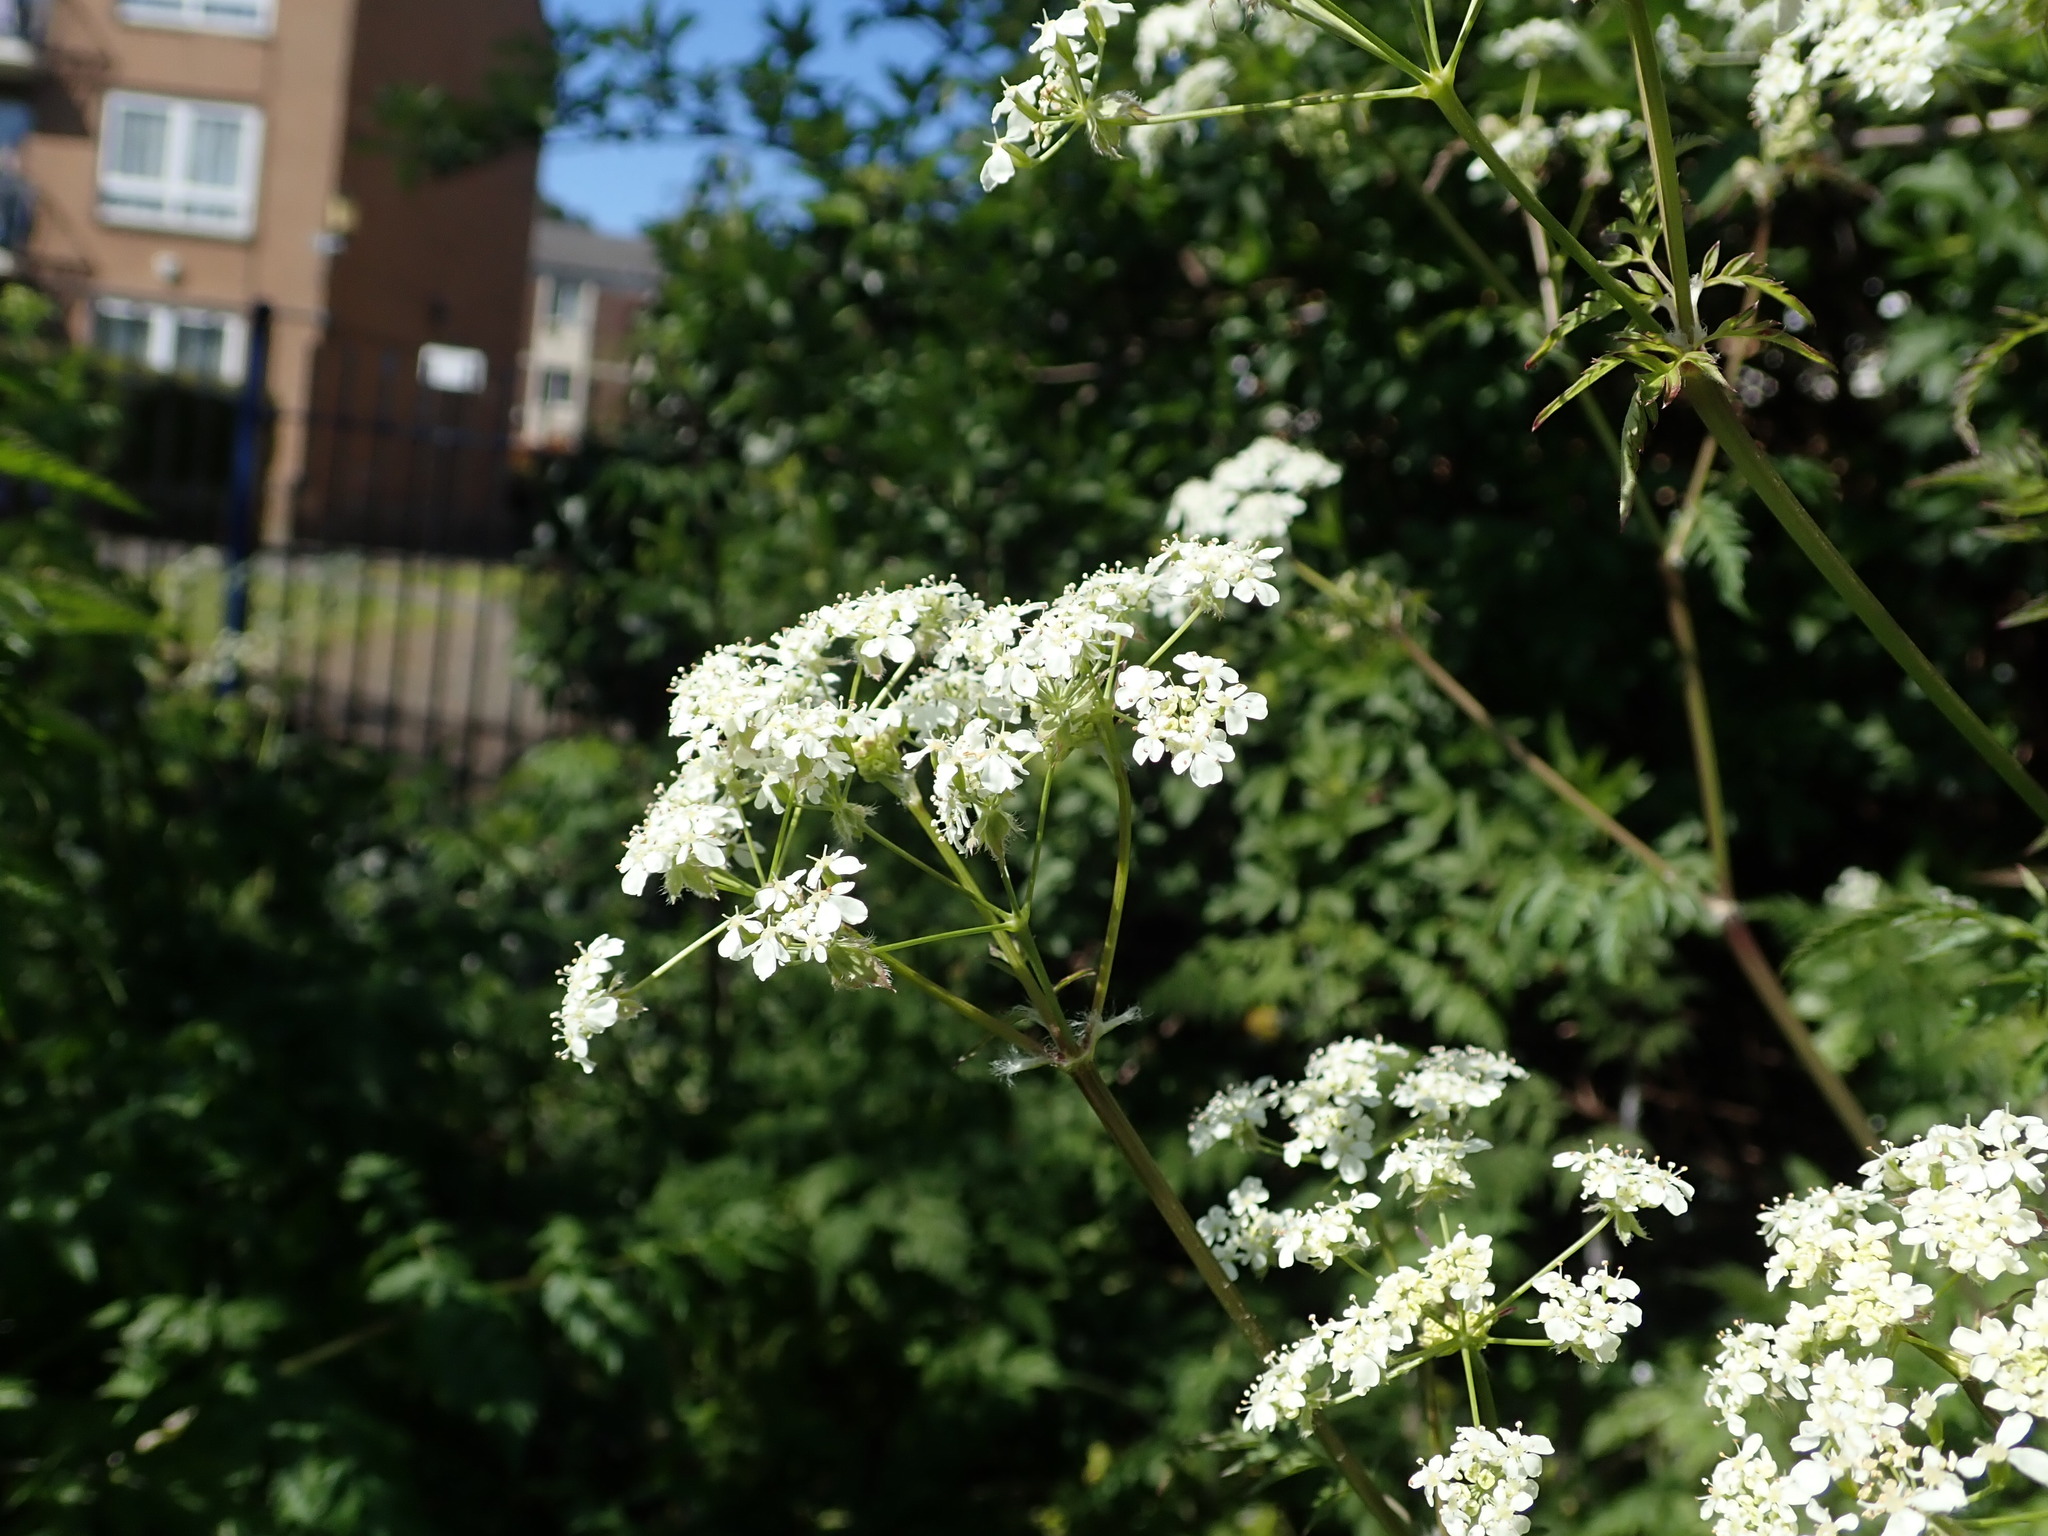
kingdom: Plantae
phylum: Tracheophyta
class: Magnoliopsida
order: Apiales
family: Apiaceae
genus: Anthriscus
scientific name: Anthriscus sylvestris
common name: Cow parsley
